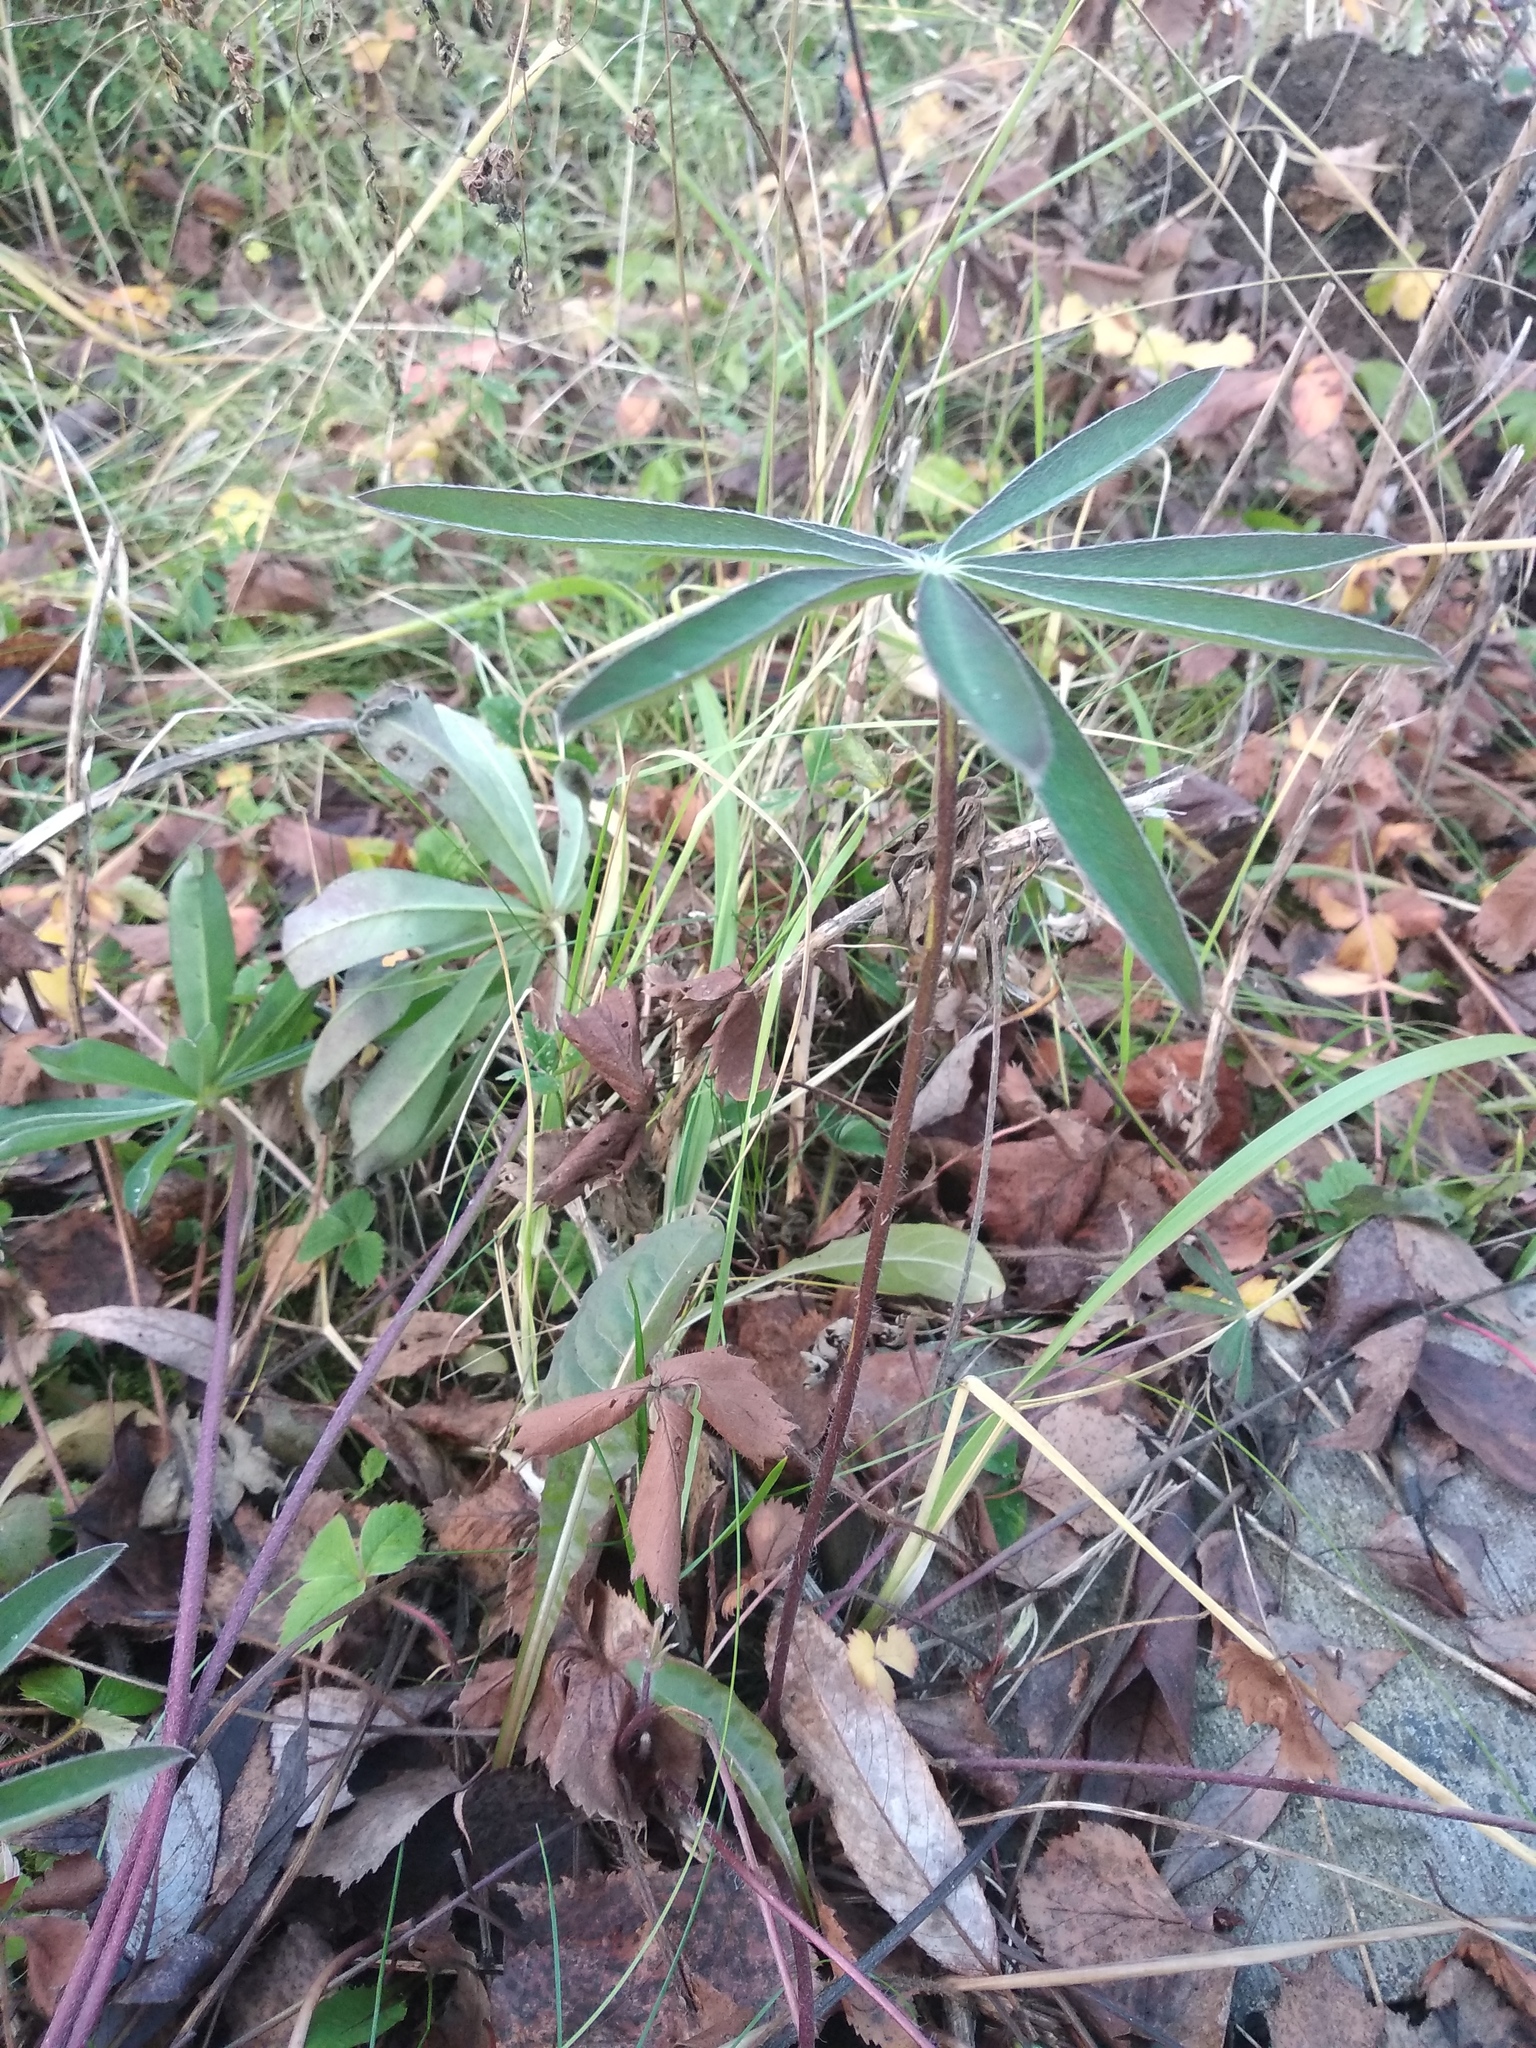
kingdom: Plantae
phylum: Tracheophyta
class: Magnoliopsida
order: Fabales
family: Fabaceae
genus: Lupinus
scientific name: Lupinus polyphyllus
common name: Garden lupin
